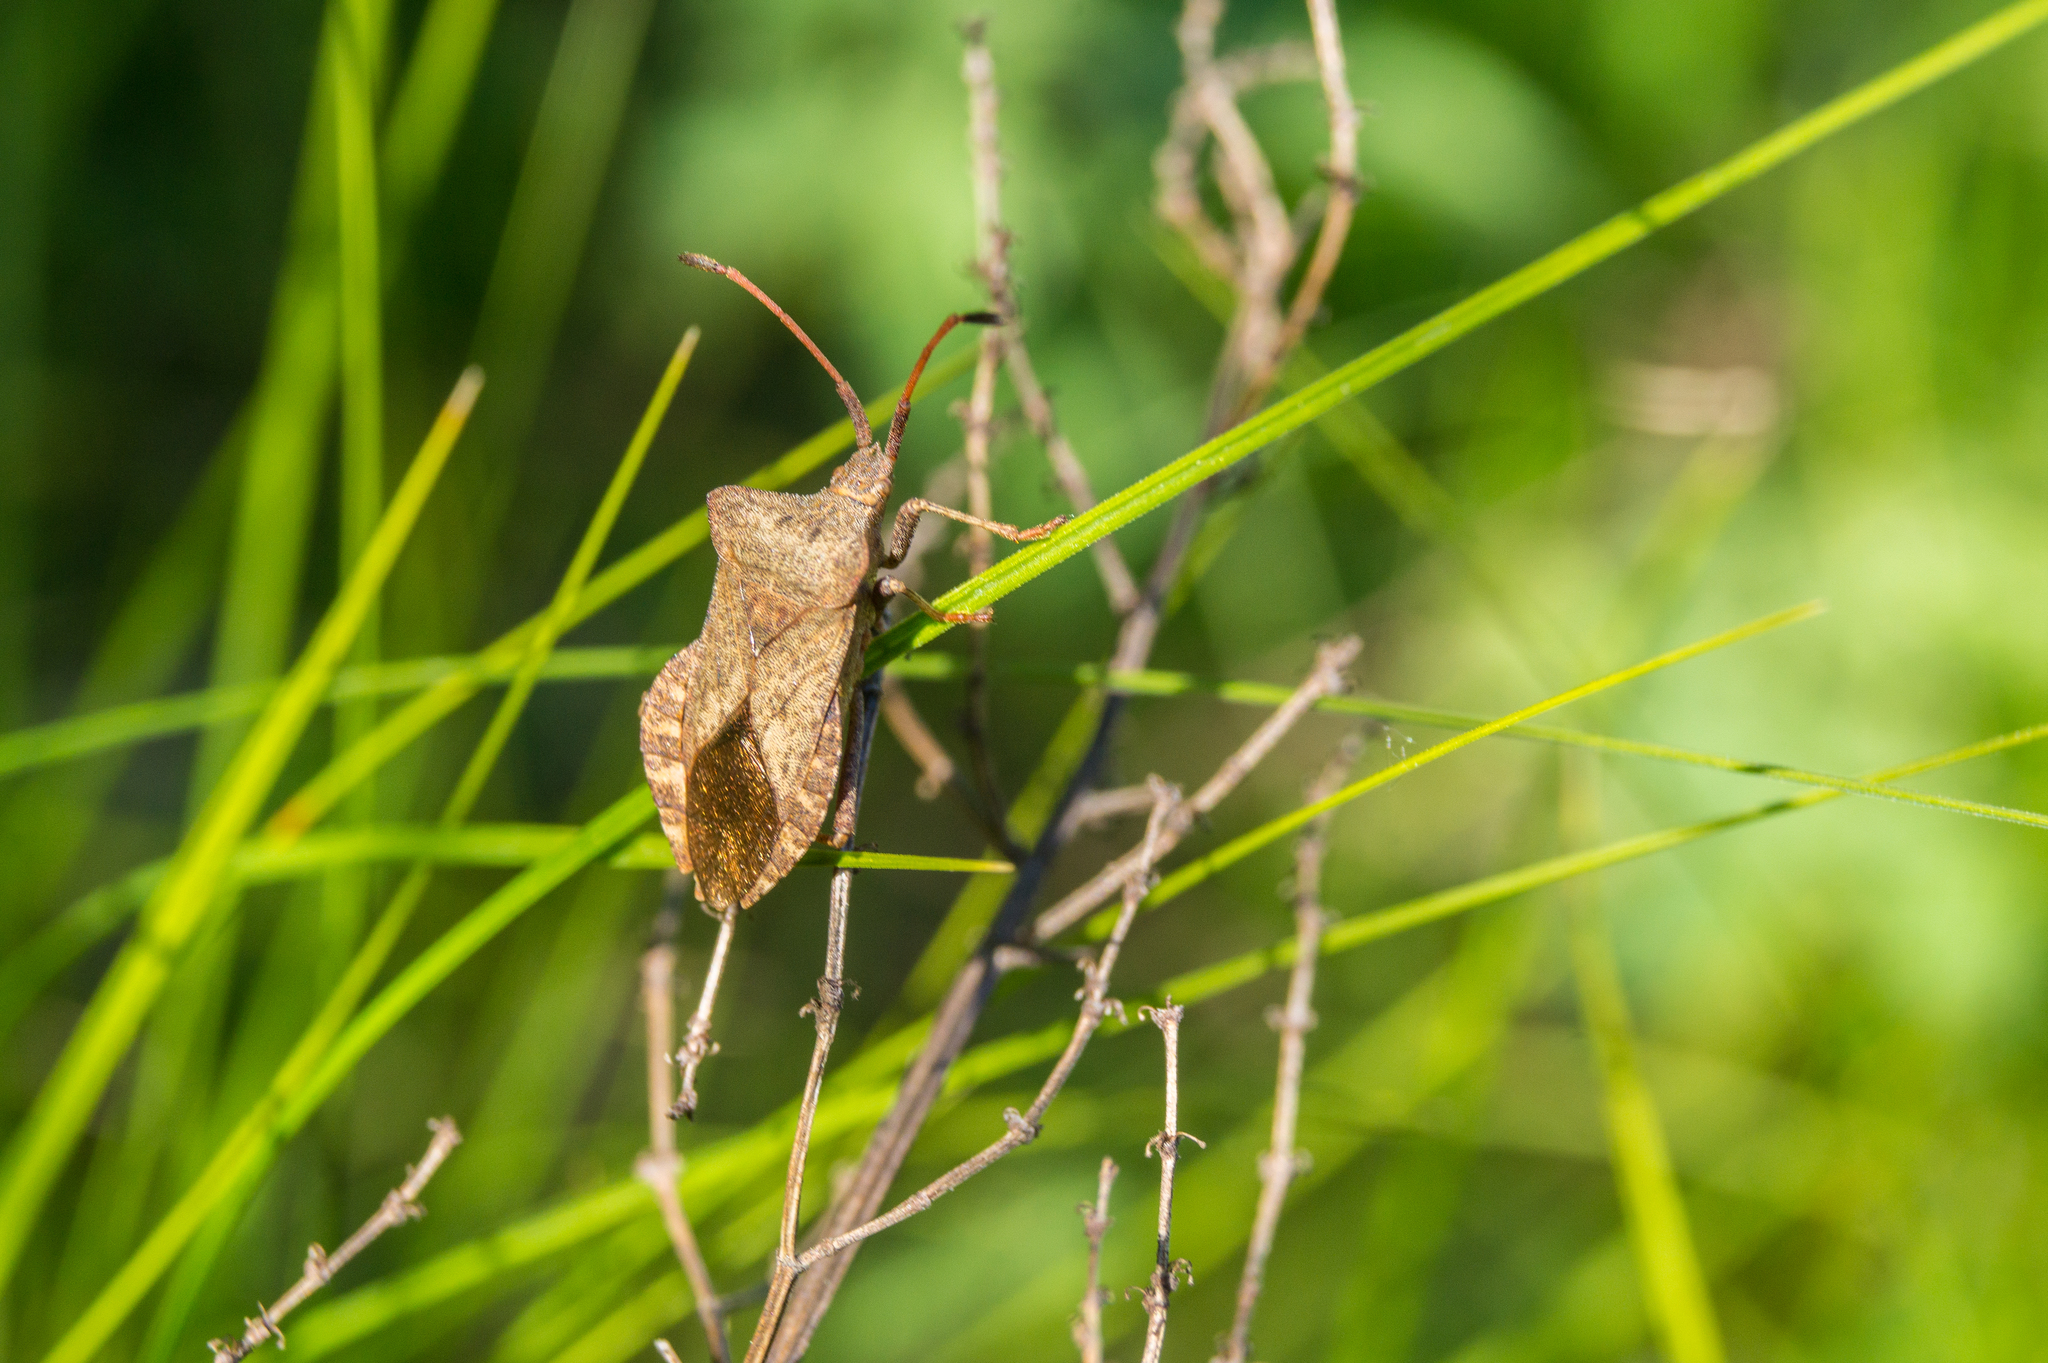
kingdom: Animalia
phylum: Arthropoda
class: Insecta
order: Hemiptera
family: Coreidae
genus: Coreus
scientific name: Coreus marginatus
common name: Dock bug
